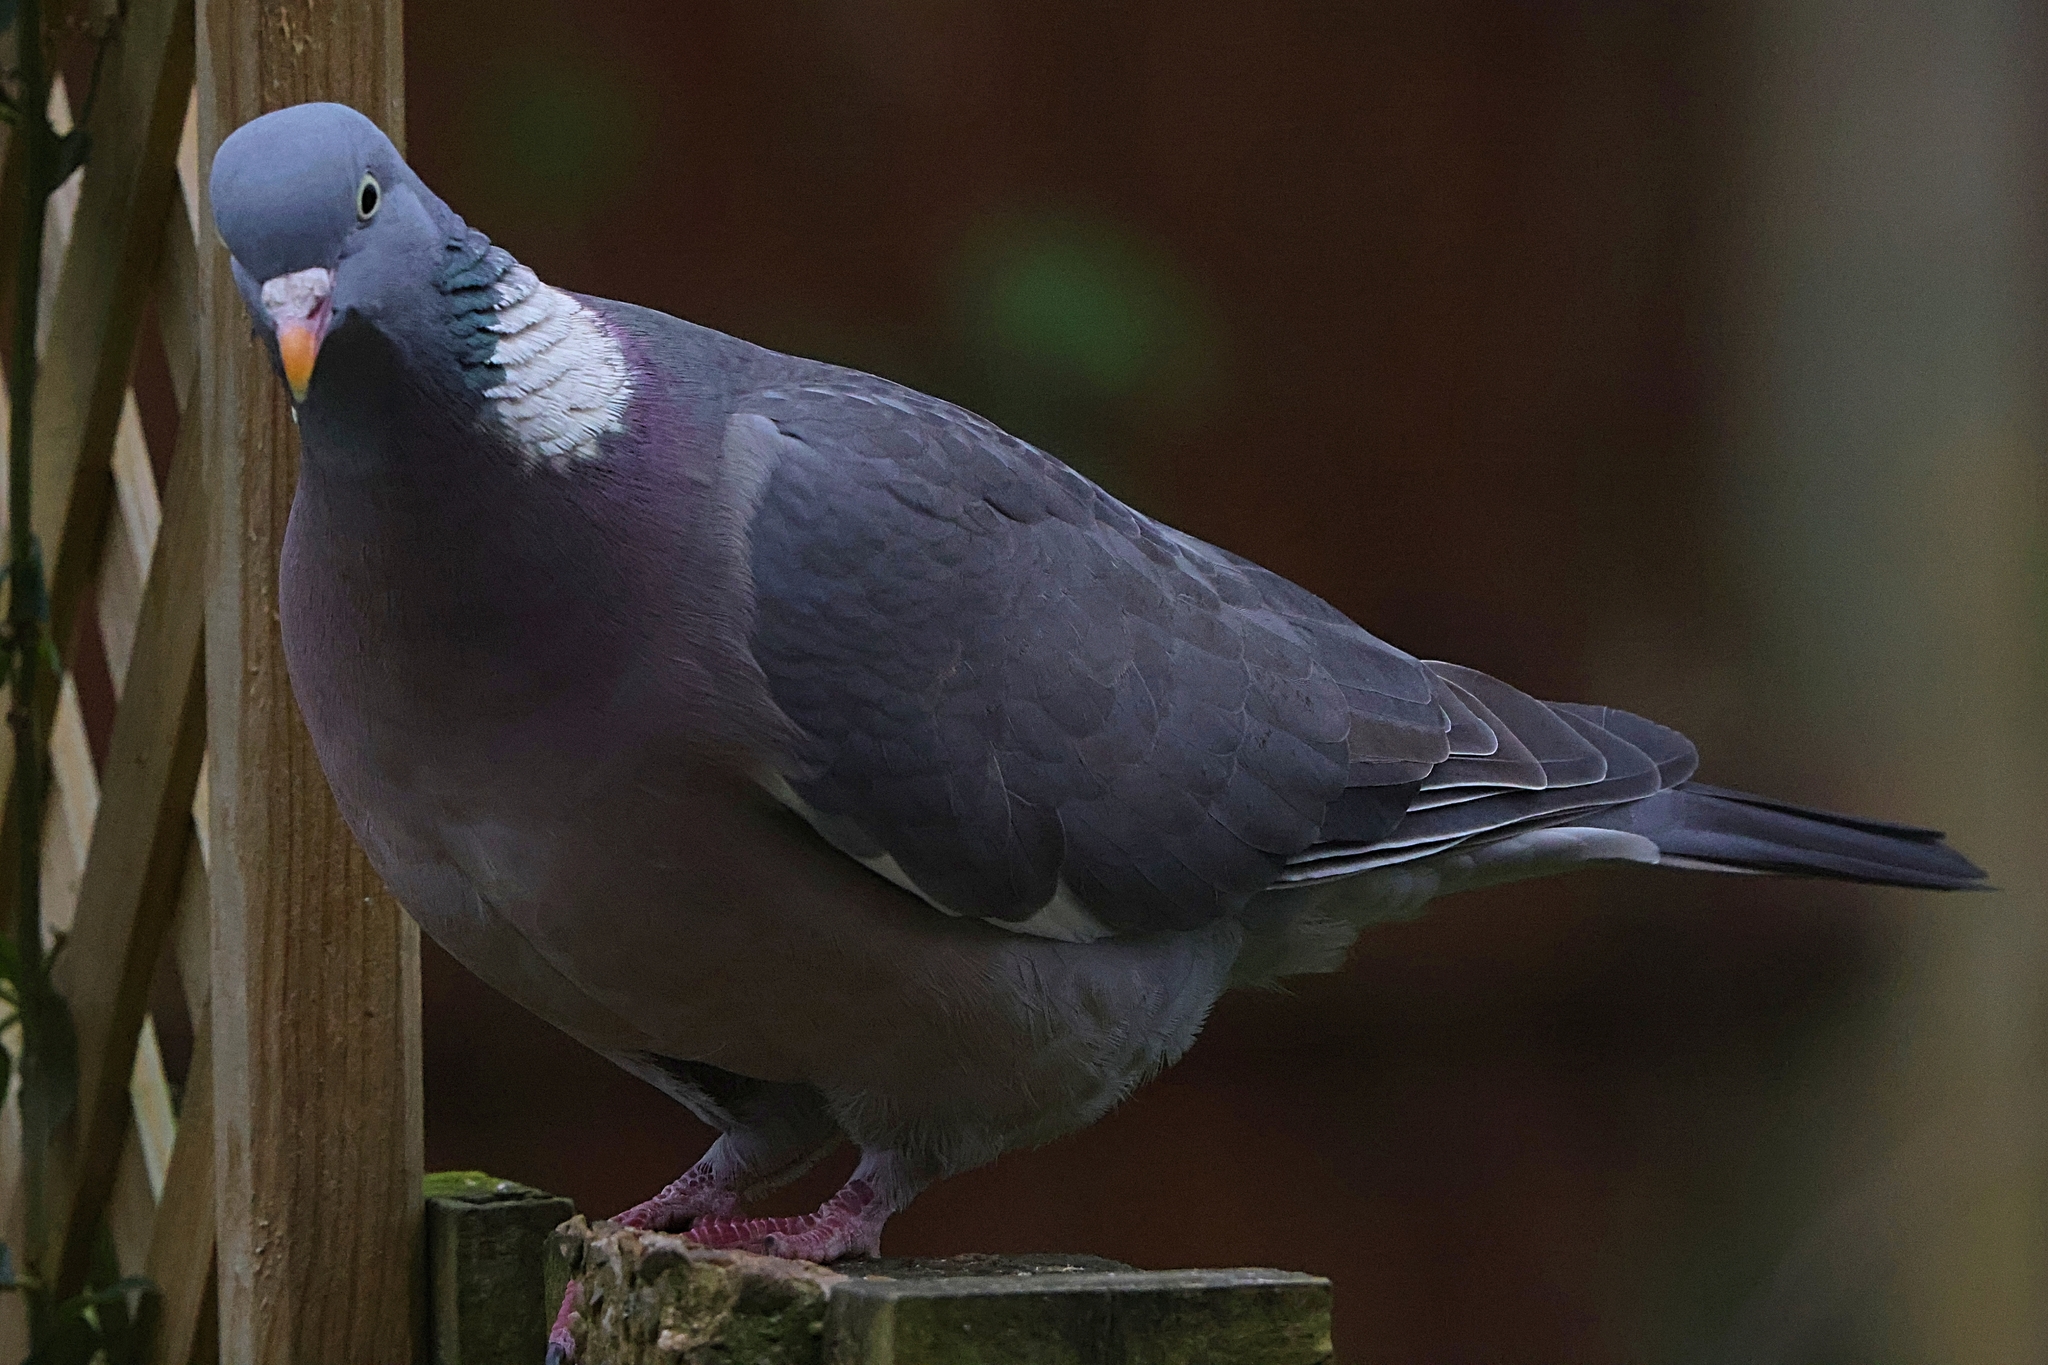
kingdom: Animalia
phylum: Chordata
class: Aves
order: Columbiformes
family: Columbidae
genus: Columba
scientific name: Columba palumbus
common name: Common wood pigeon
